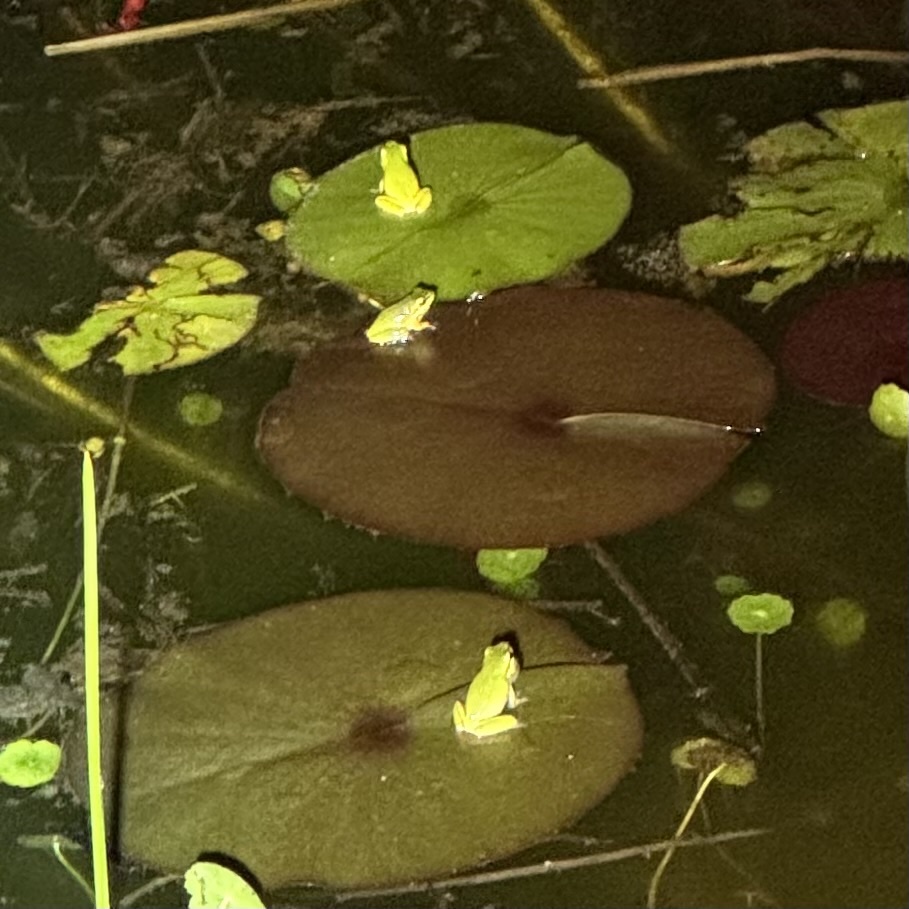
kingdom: Animalia
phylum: Chordata
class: Amphibia
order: Anura
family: Pelodryadidae
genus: Litoria
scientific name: Litoria fallax
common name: Eastern dwarf treefrog
